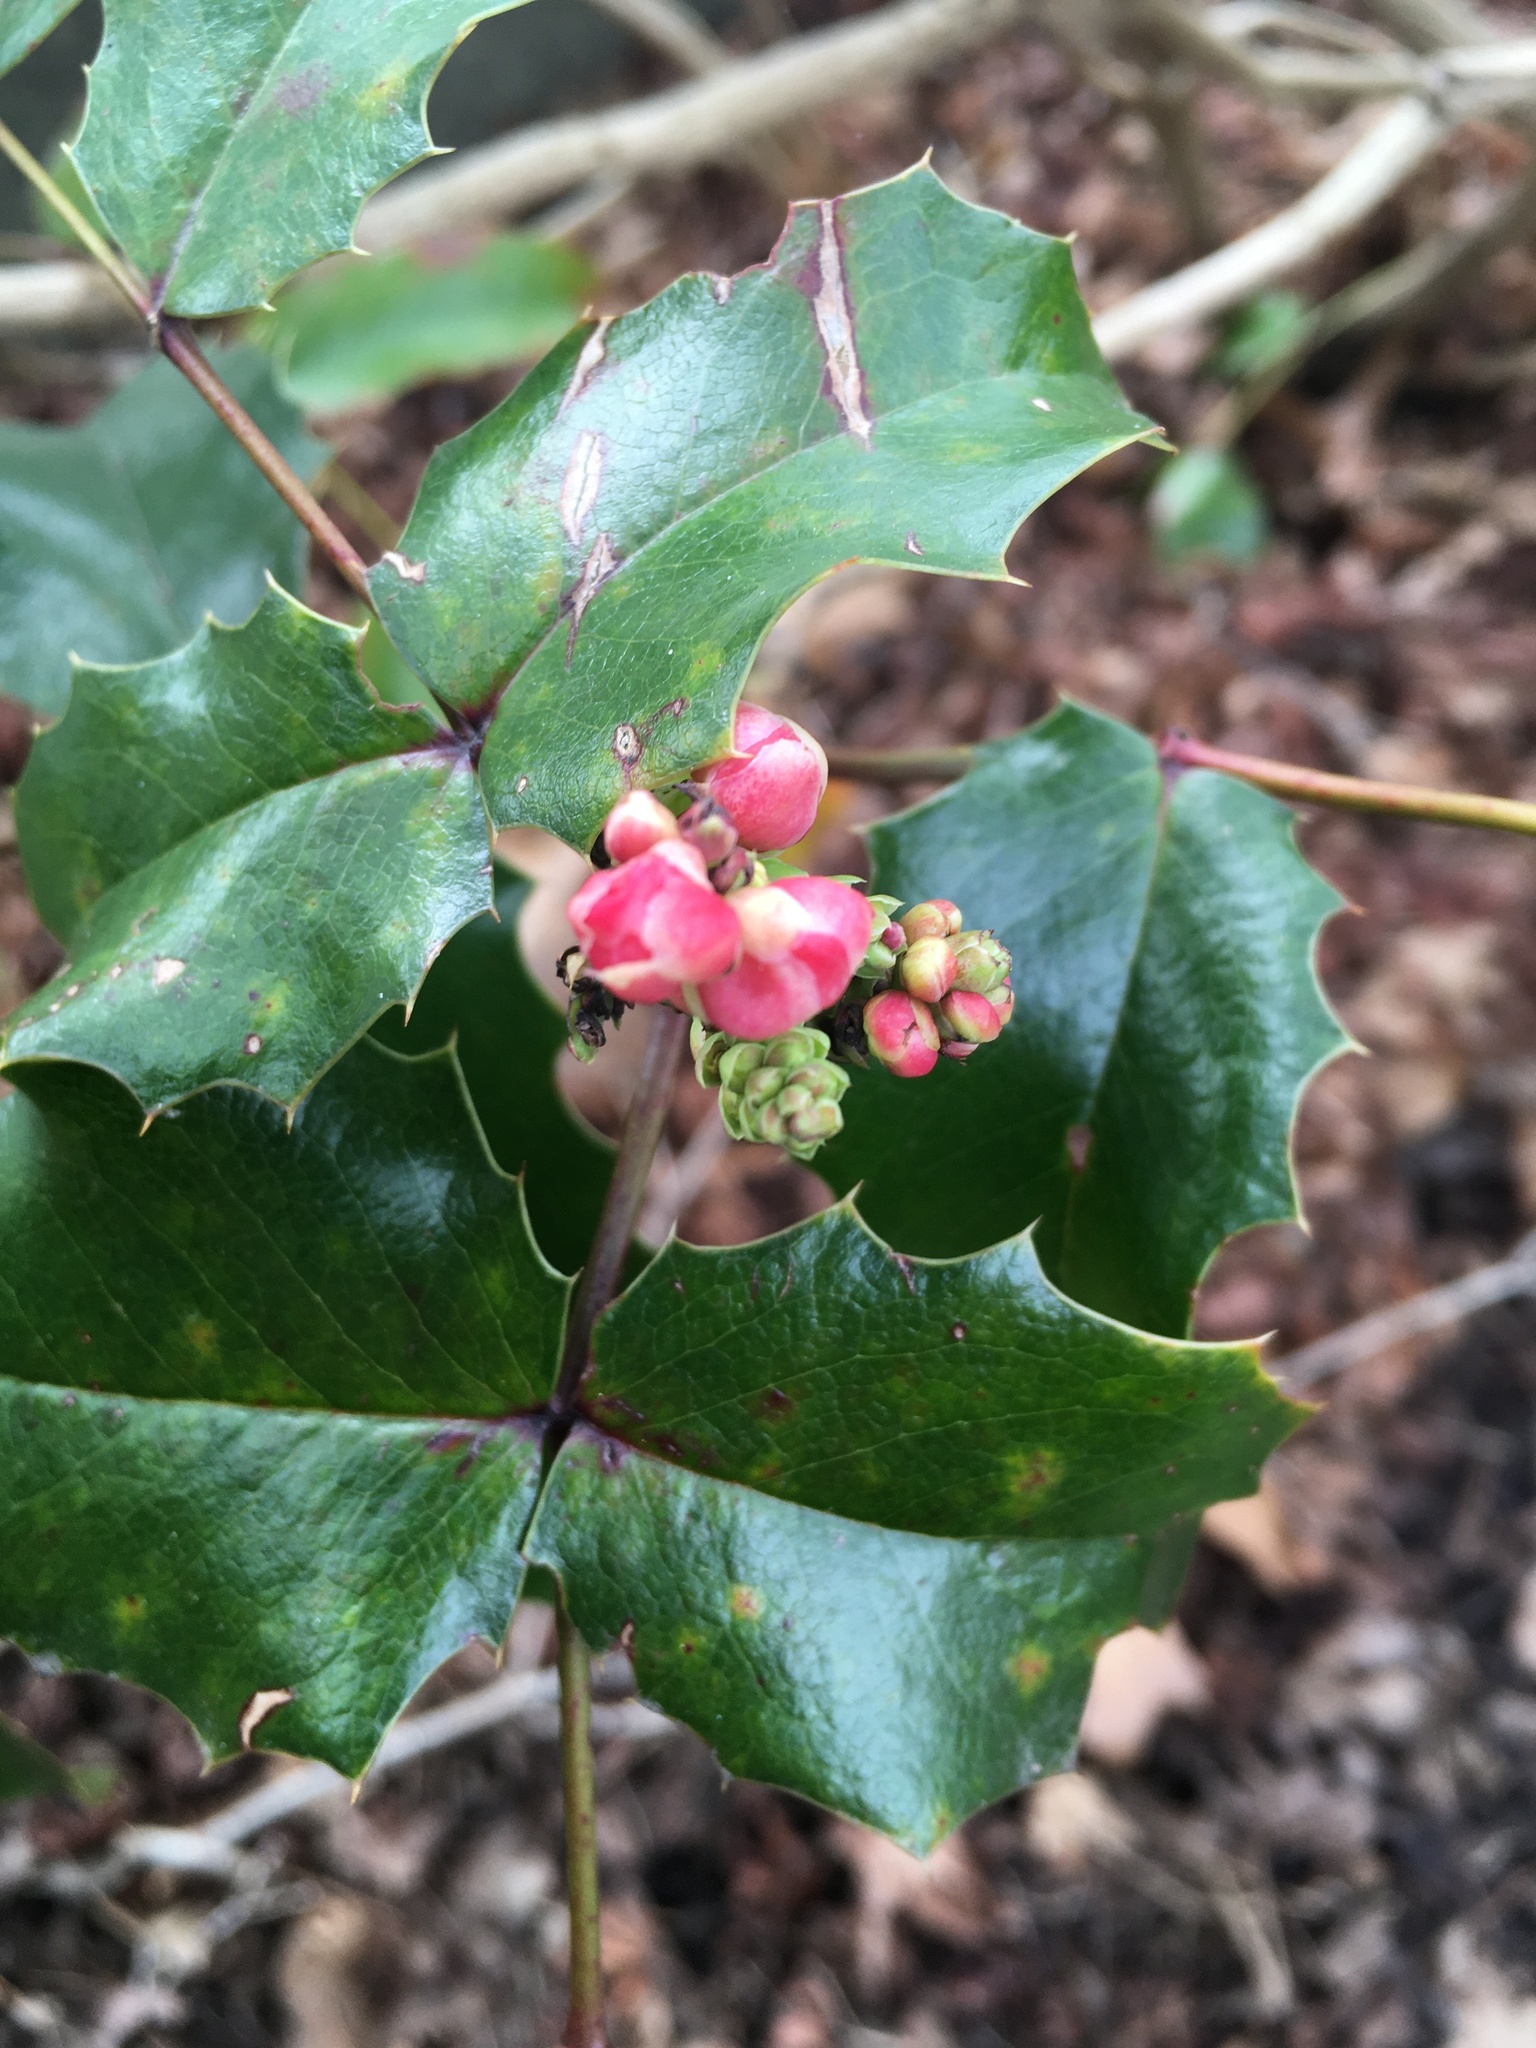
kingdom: Plantae
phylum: Tracheophyta
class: Magnoliopsida
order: Ranunculales
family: Berberidaceae
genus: Mahonia
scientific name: Mahonia aquifolium
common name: Oregon-grape
